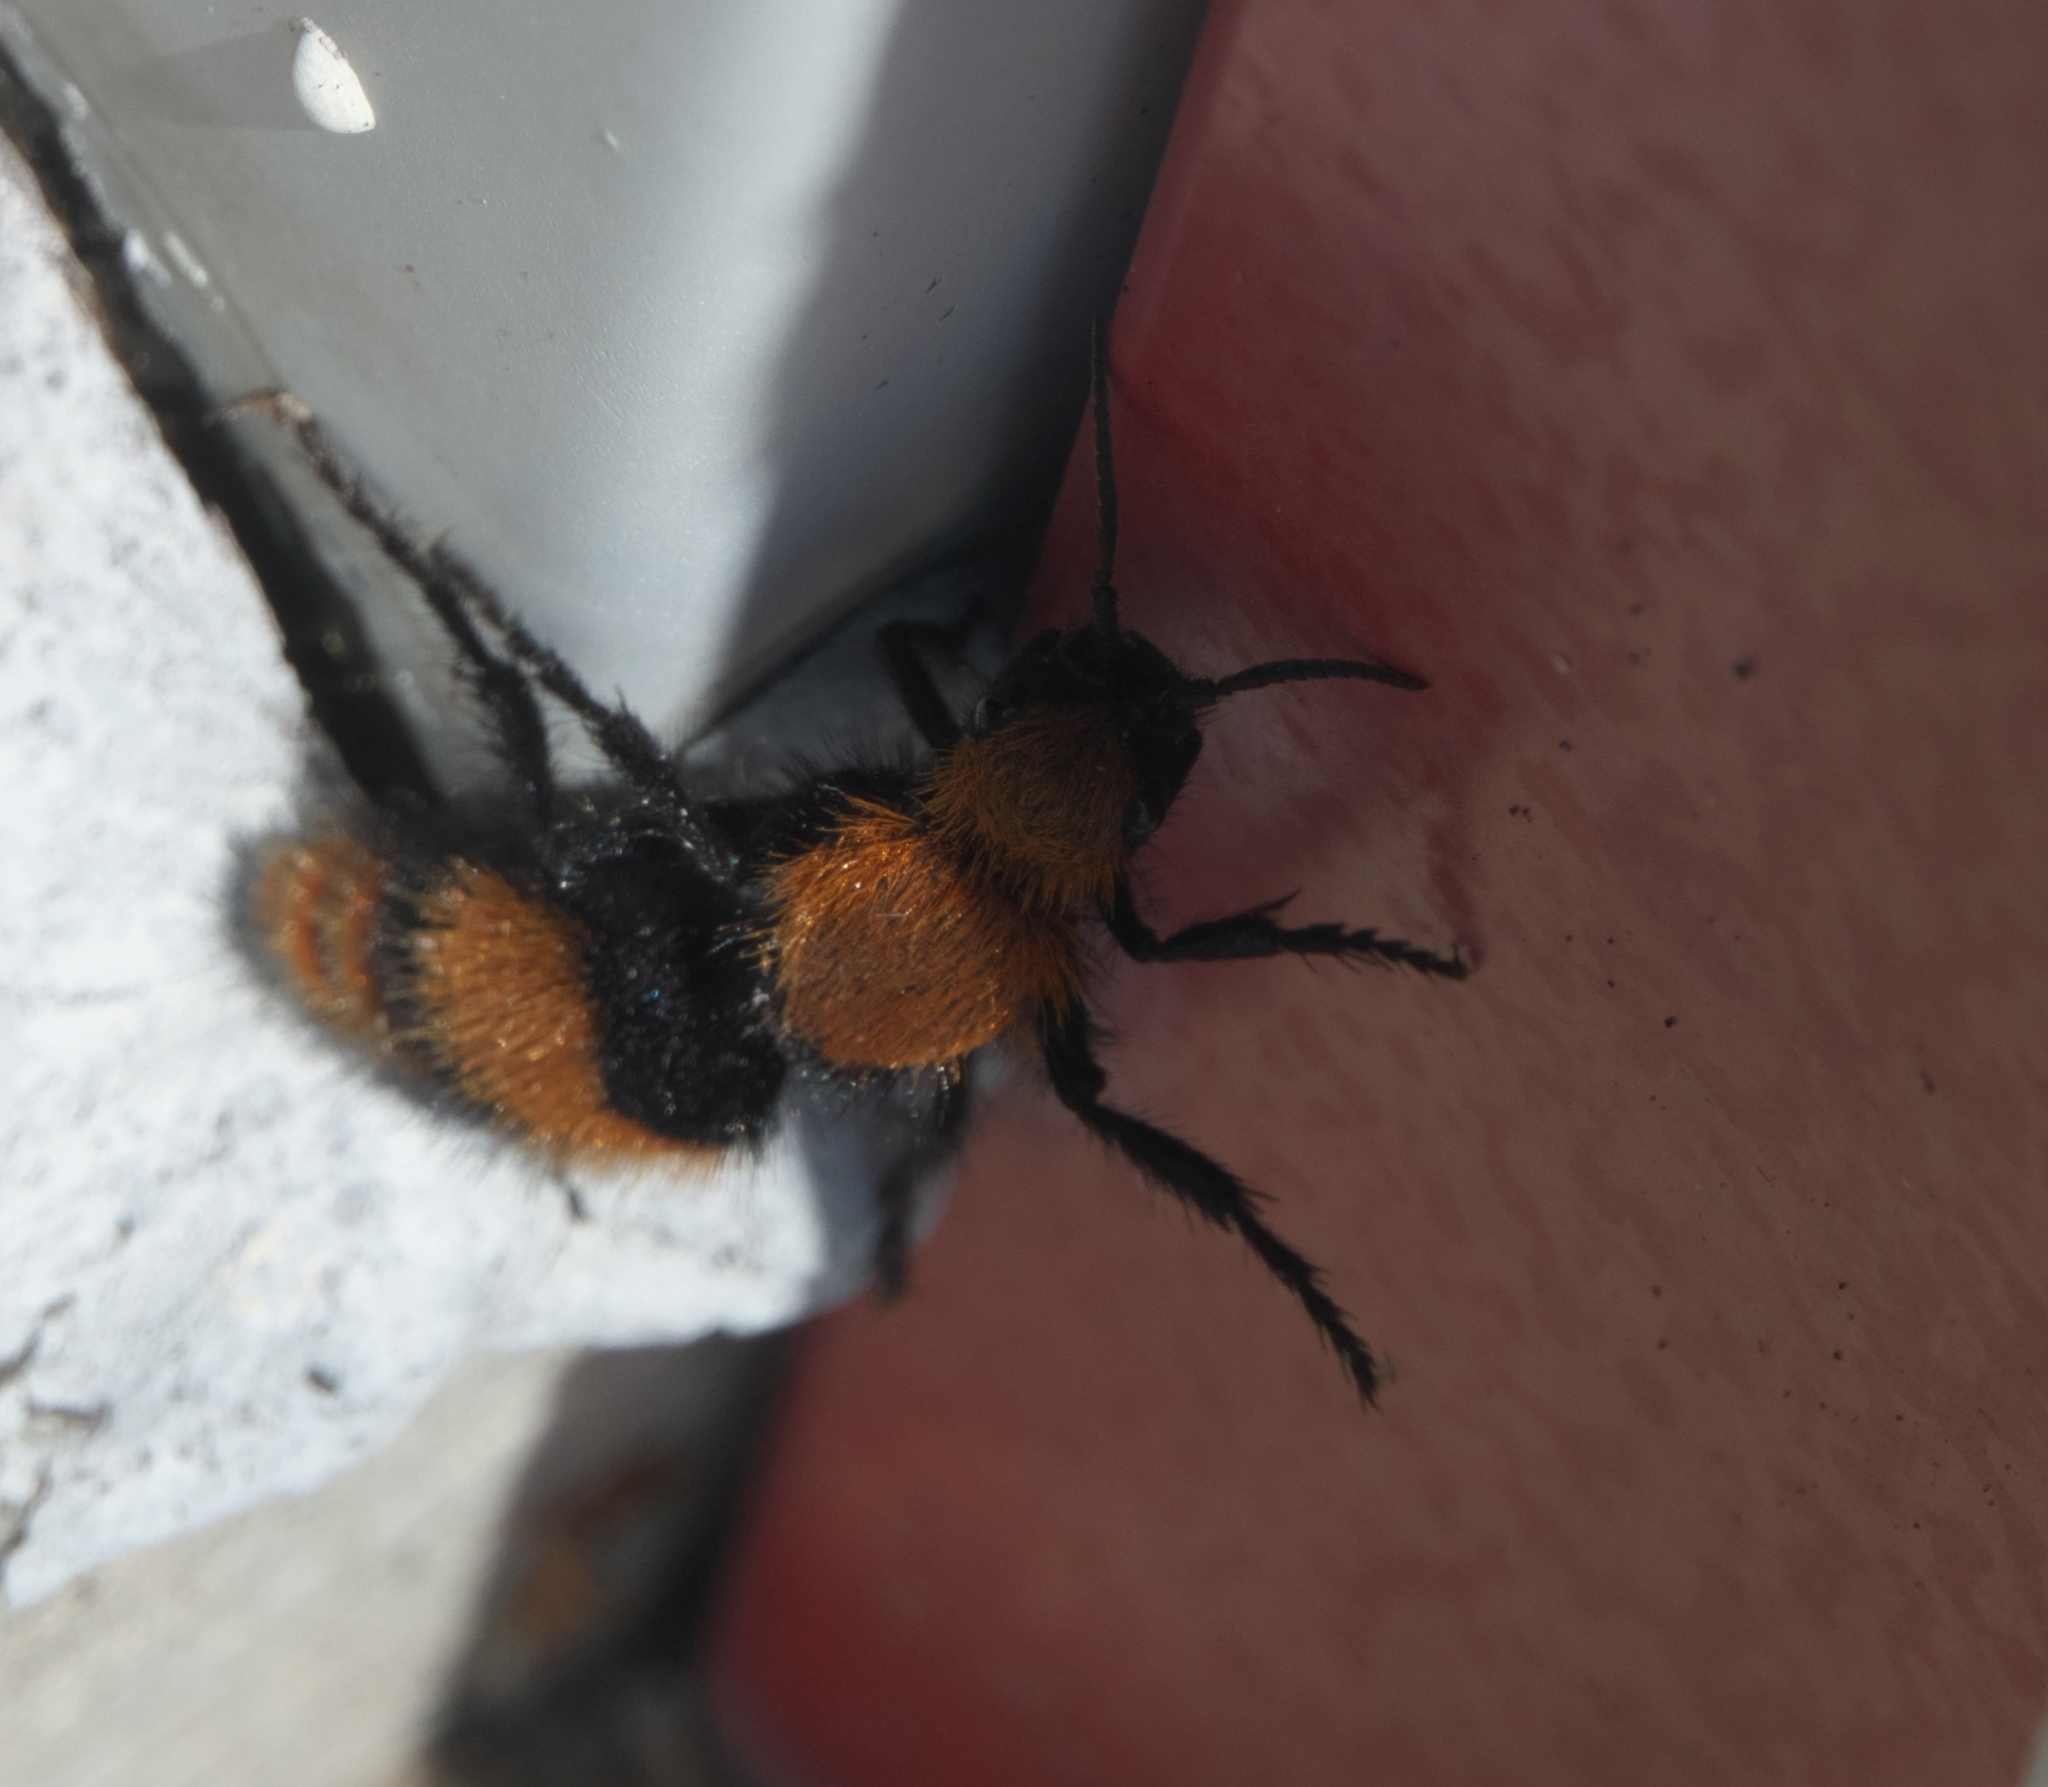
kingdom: Animalia
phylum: Arthropoda
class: Insecta
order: Hymenoptera
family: Mutillidae
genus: Dasymutilla
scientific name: Dasymutilla occidentalis
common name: Common eastern velvet ant
